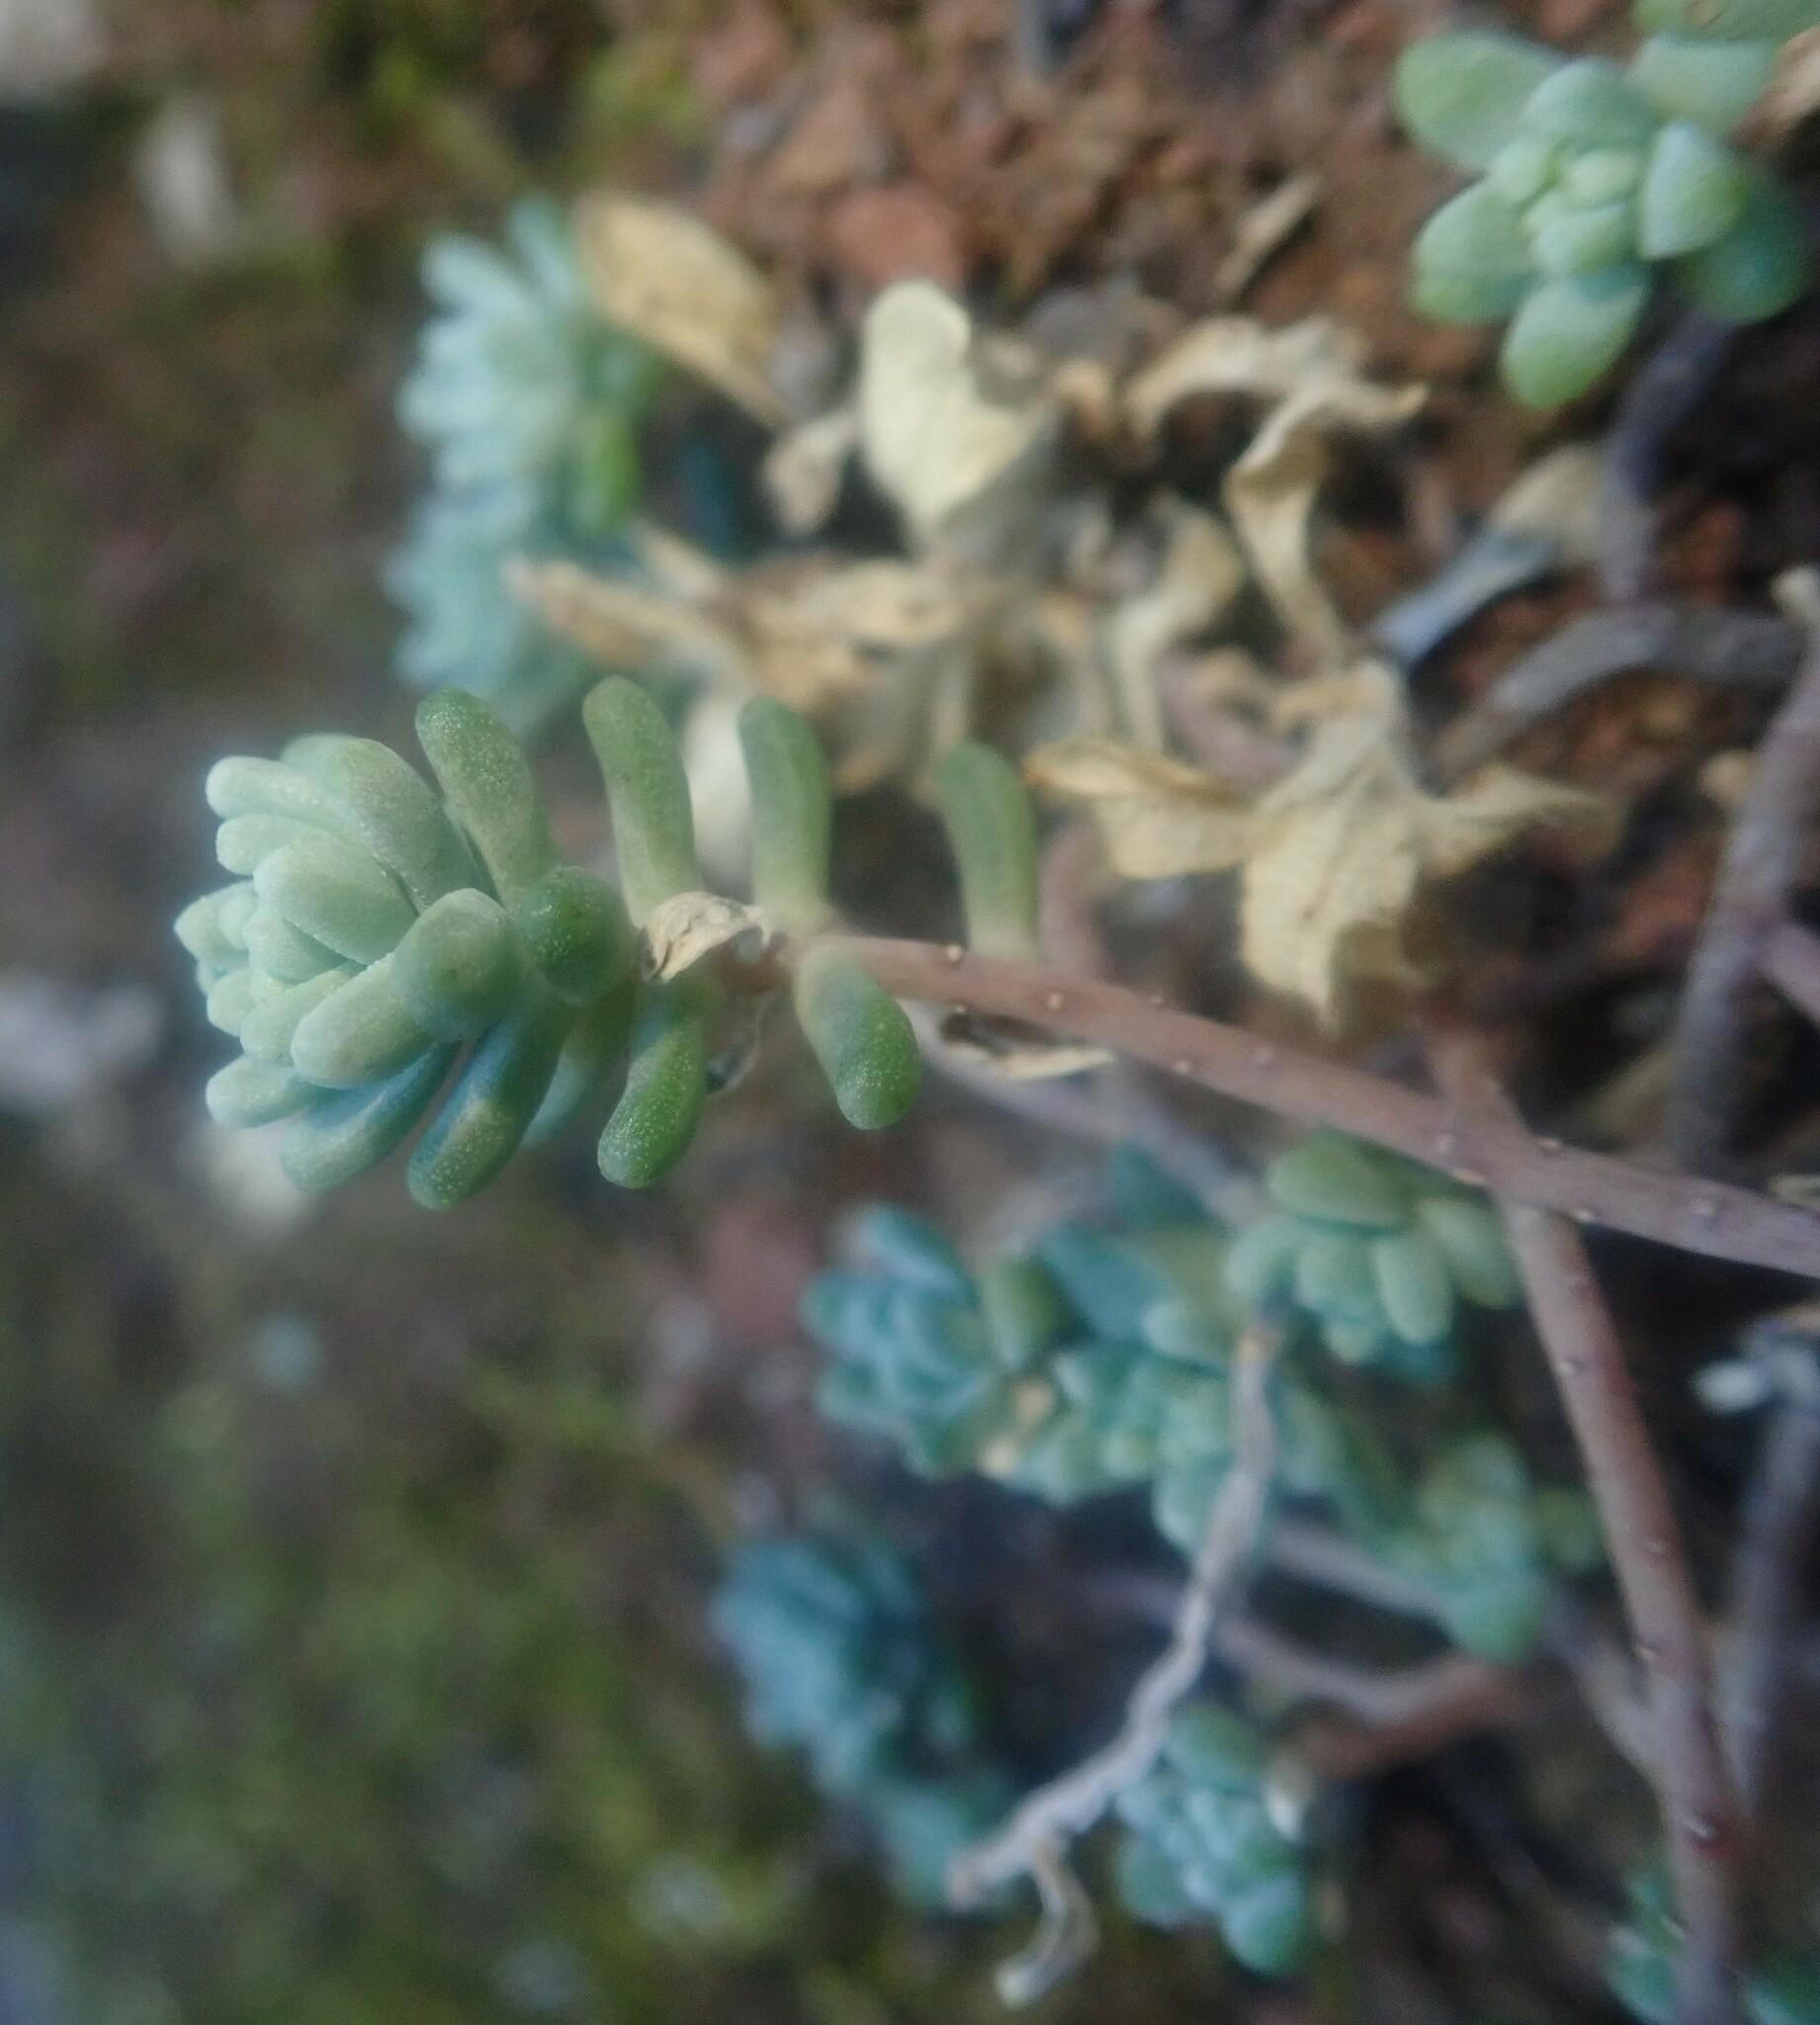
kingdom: Plantae
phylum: Tracheophyta
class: Magnoliopsida
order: Saxifragales
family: Crassulaceae
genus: Sedum
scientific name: Sedum farinosum
